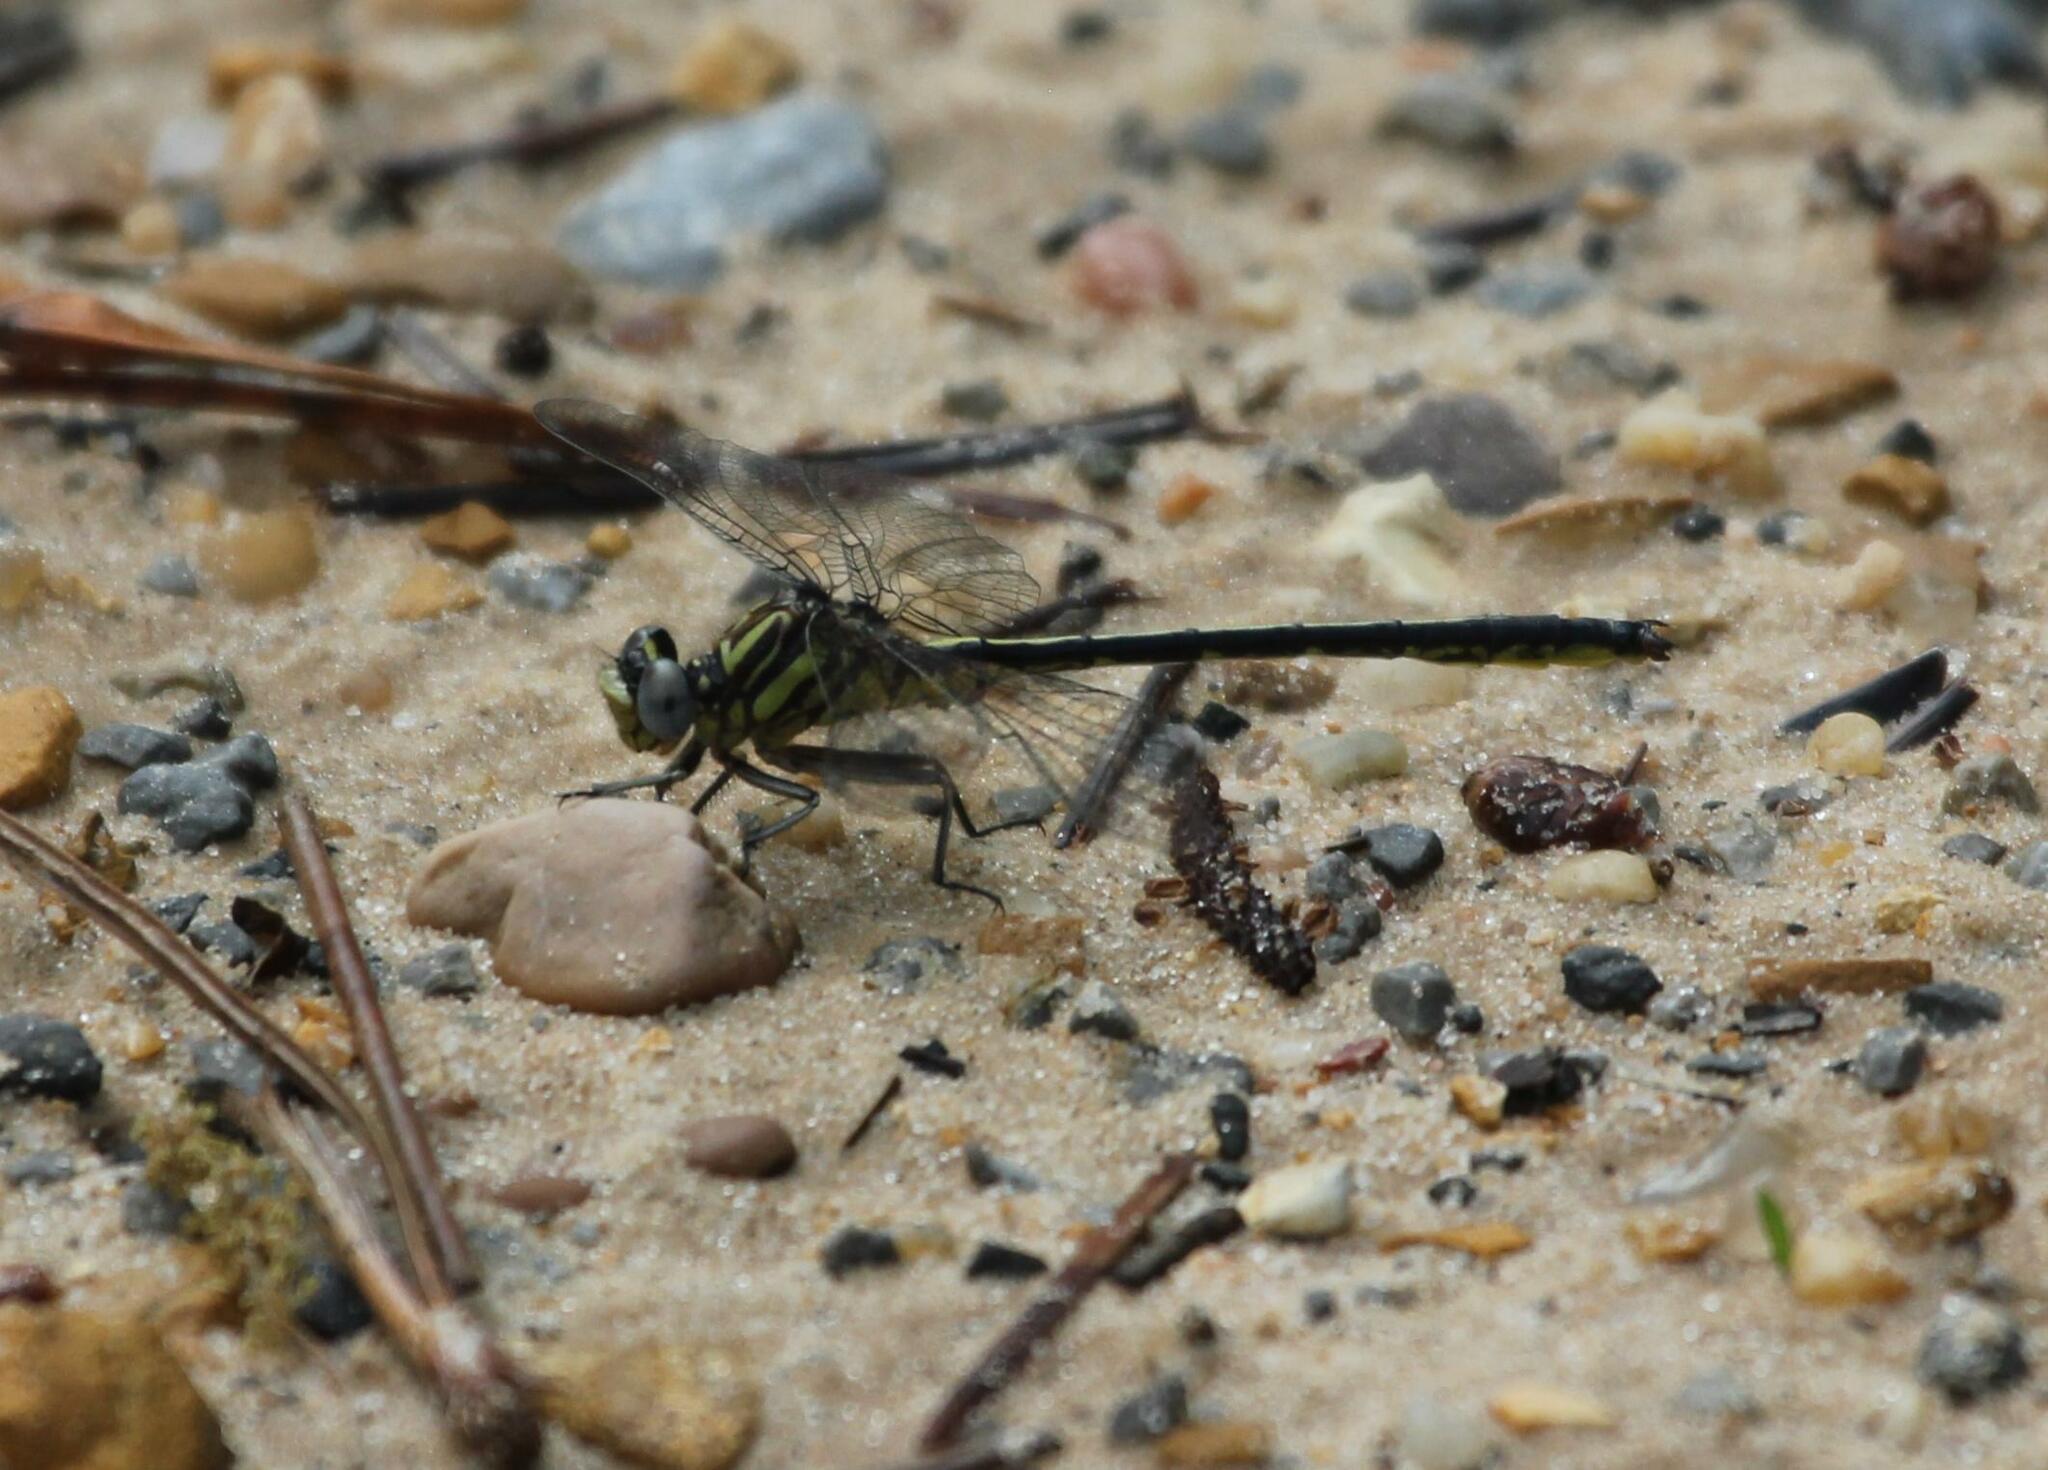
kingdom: Animalia
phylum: Arthropoda
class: Insecta
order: Odonata
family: Gomphidae
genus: Phanogomphus
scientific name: Phanogomphus hodgesi
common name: Hodges' clubtail
